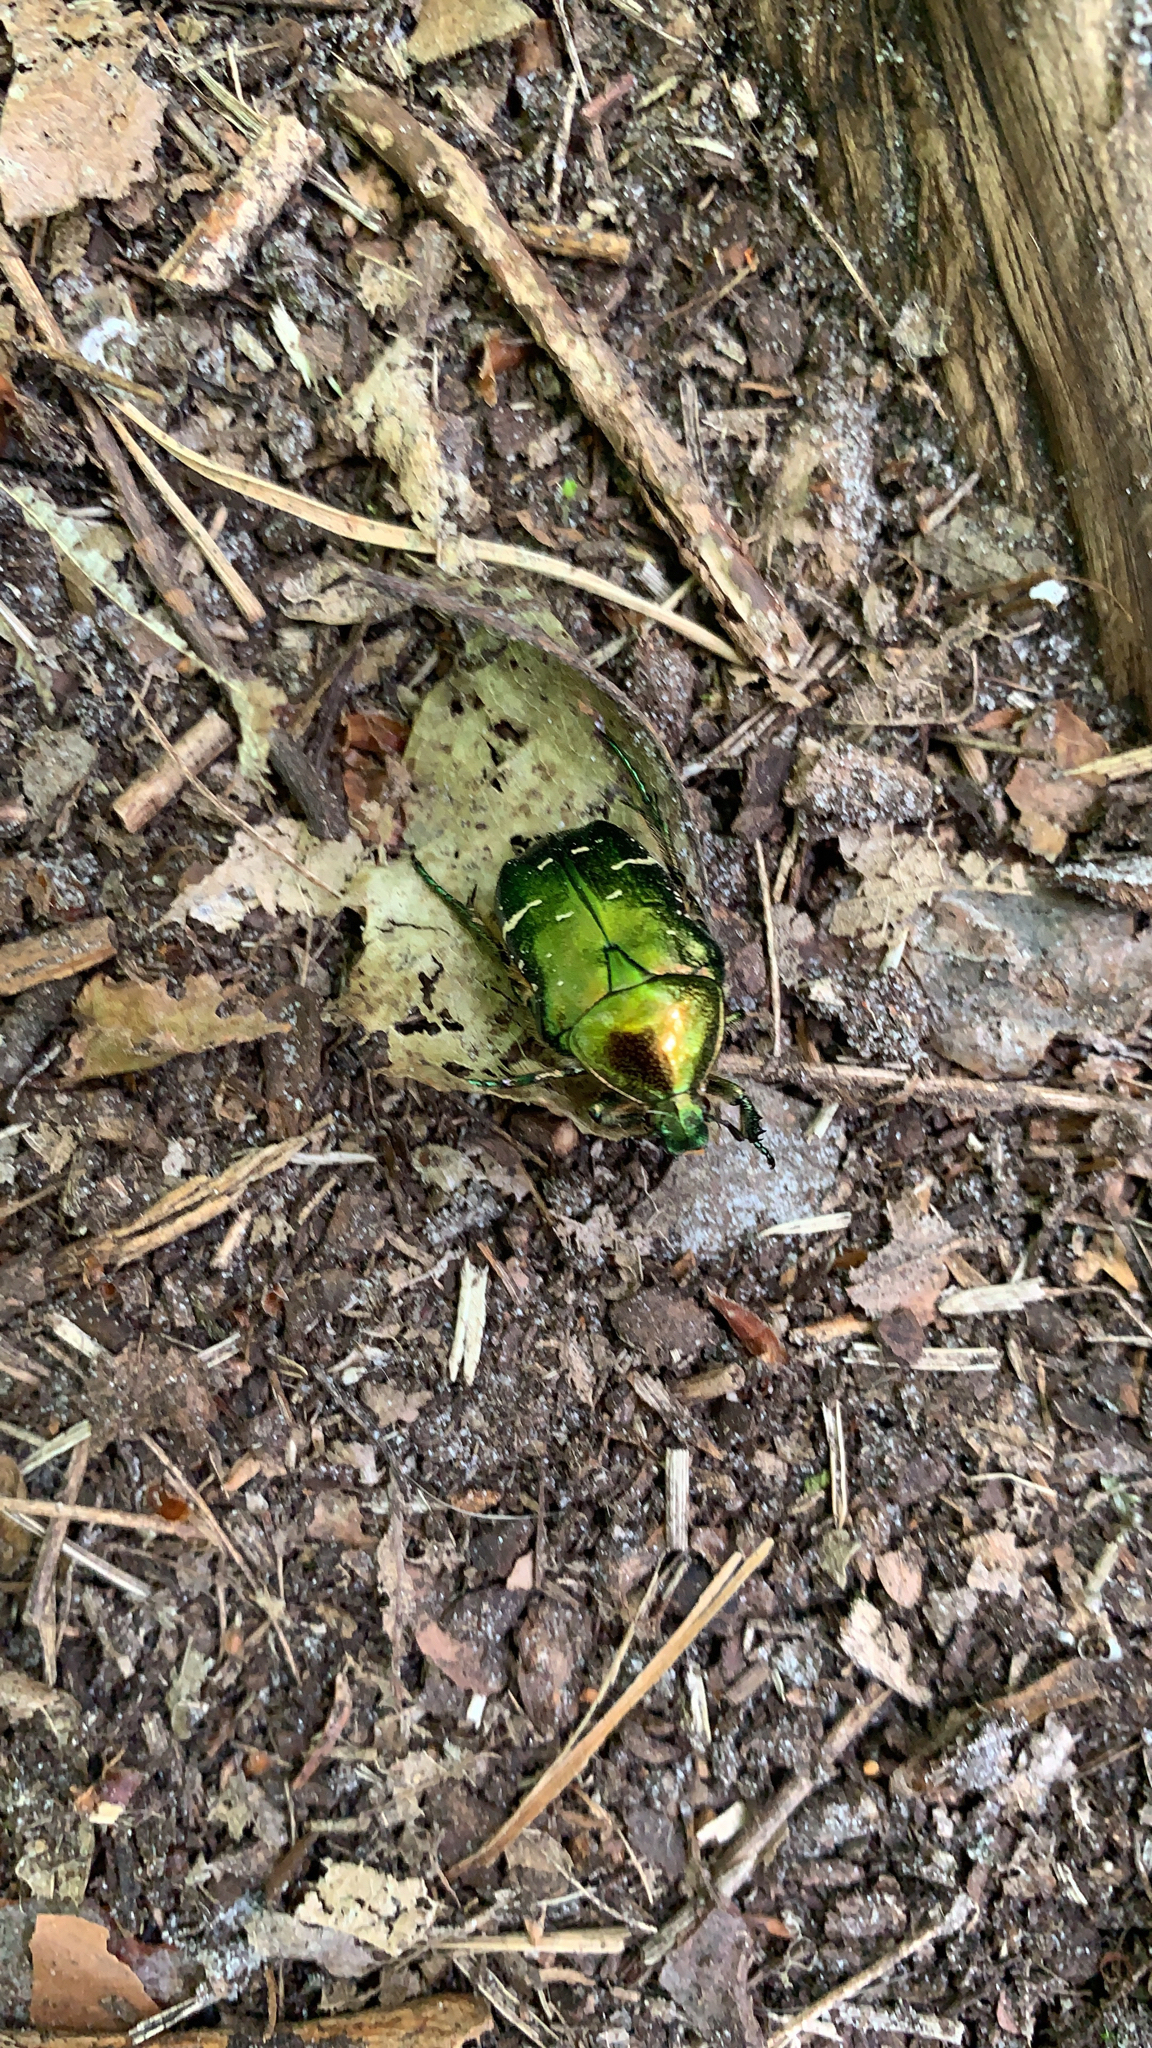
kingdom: Animalia
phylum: Arthropoda
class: Insecta
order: Coleoptera
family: Scarabaeidae
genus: Cetonia
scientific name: Cetonia aurata
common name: Rose chafer
